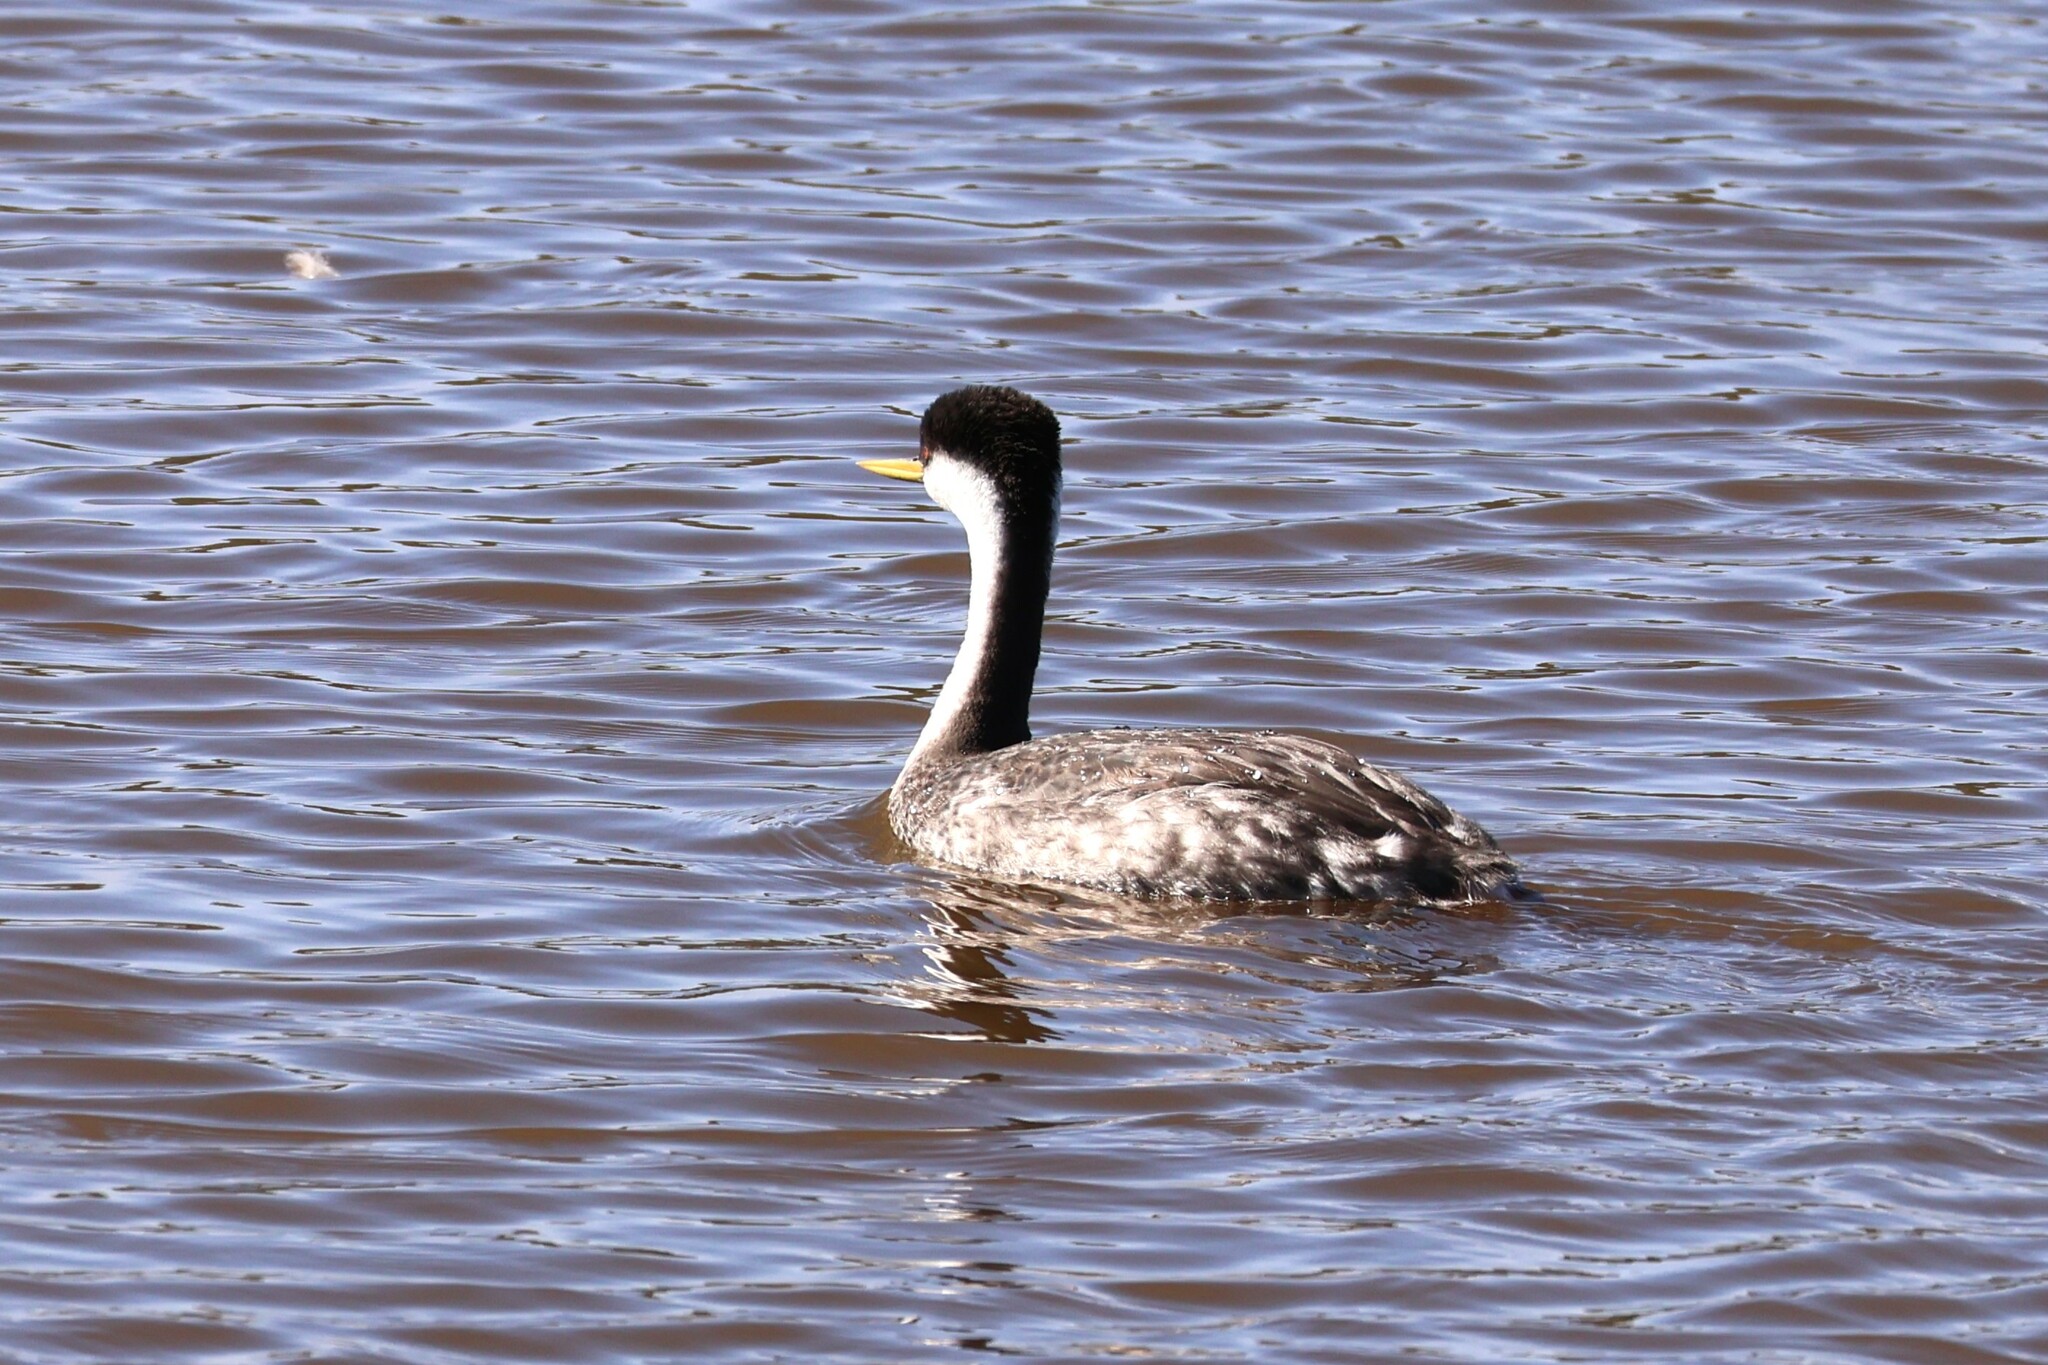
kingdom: Animalia
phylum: Chordata
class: Aves
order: Podicipediformes
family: Podicipedidae
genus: Aechmophorus
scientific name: Aechmophorus occidentalis
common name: Western grebe
